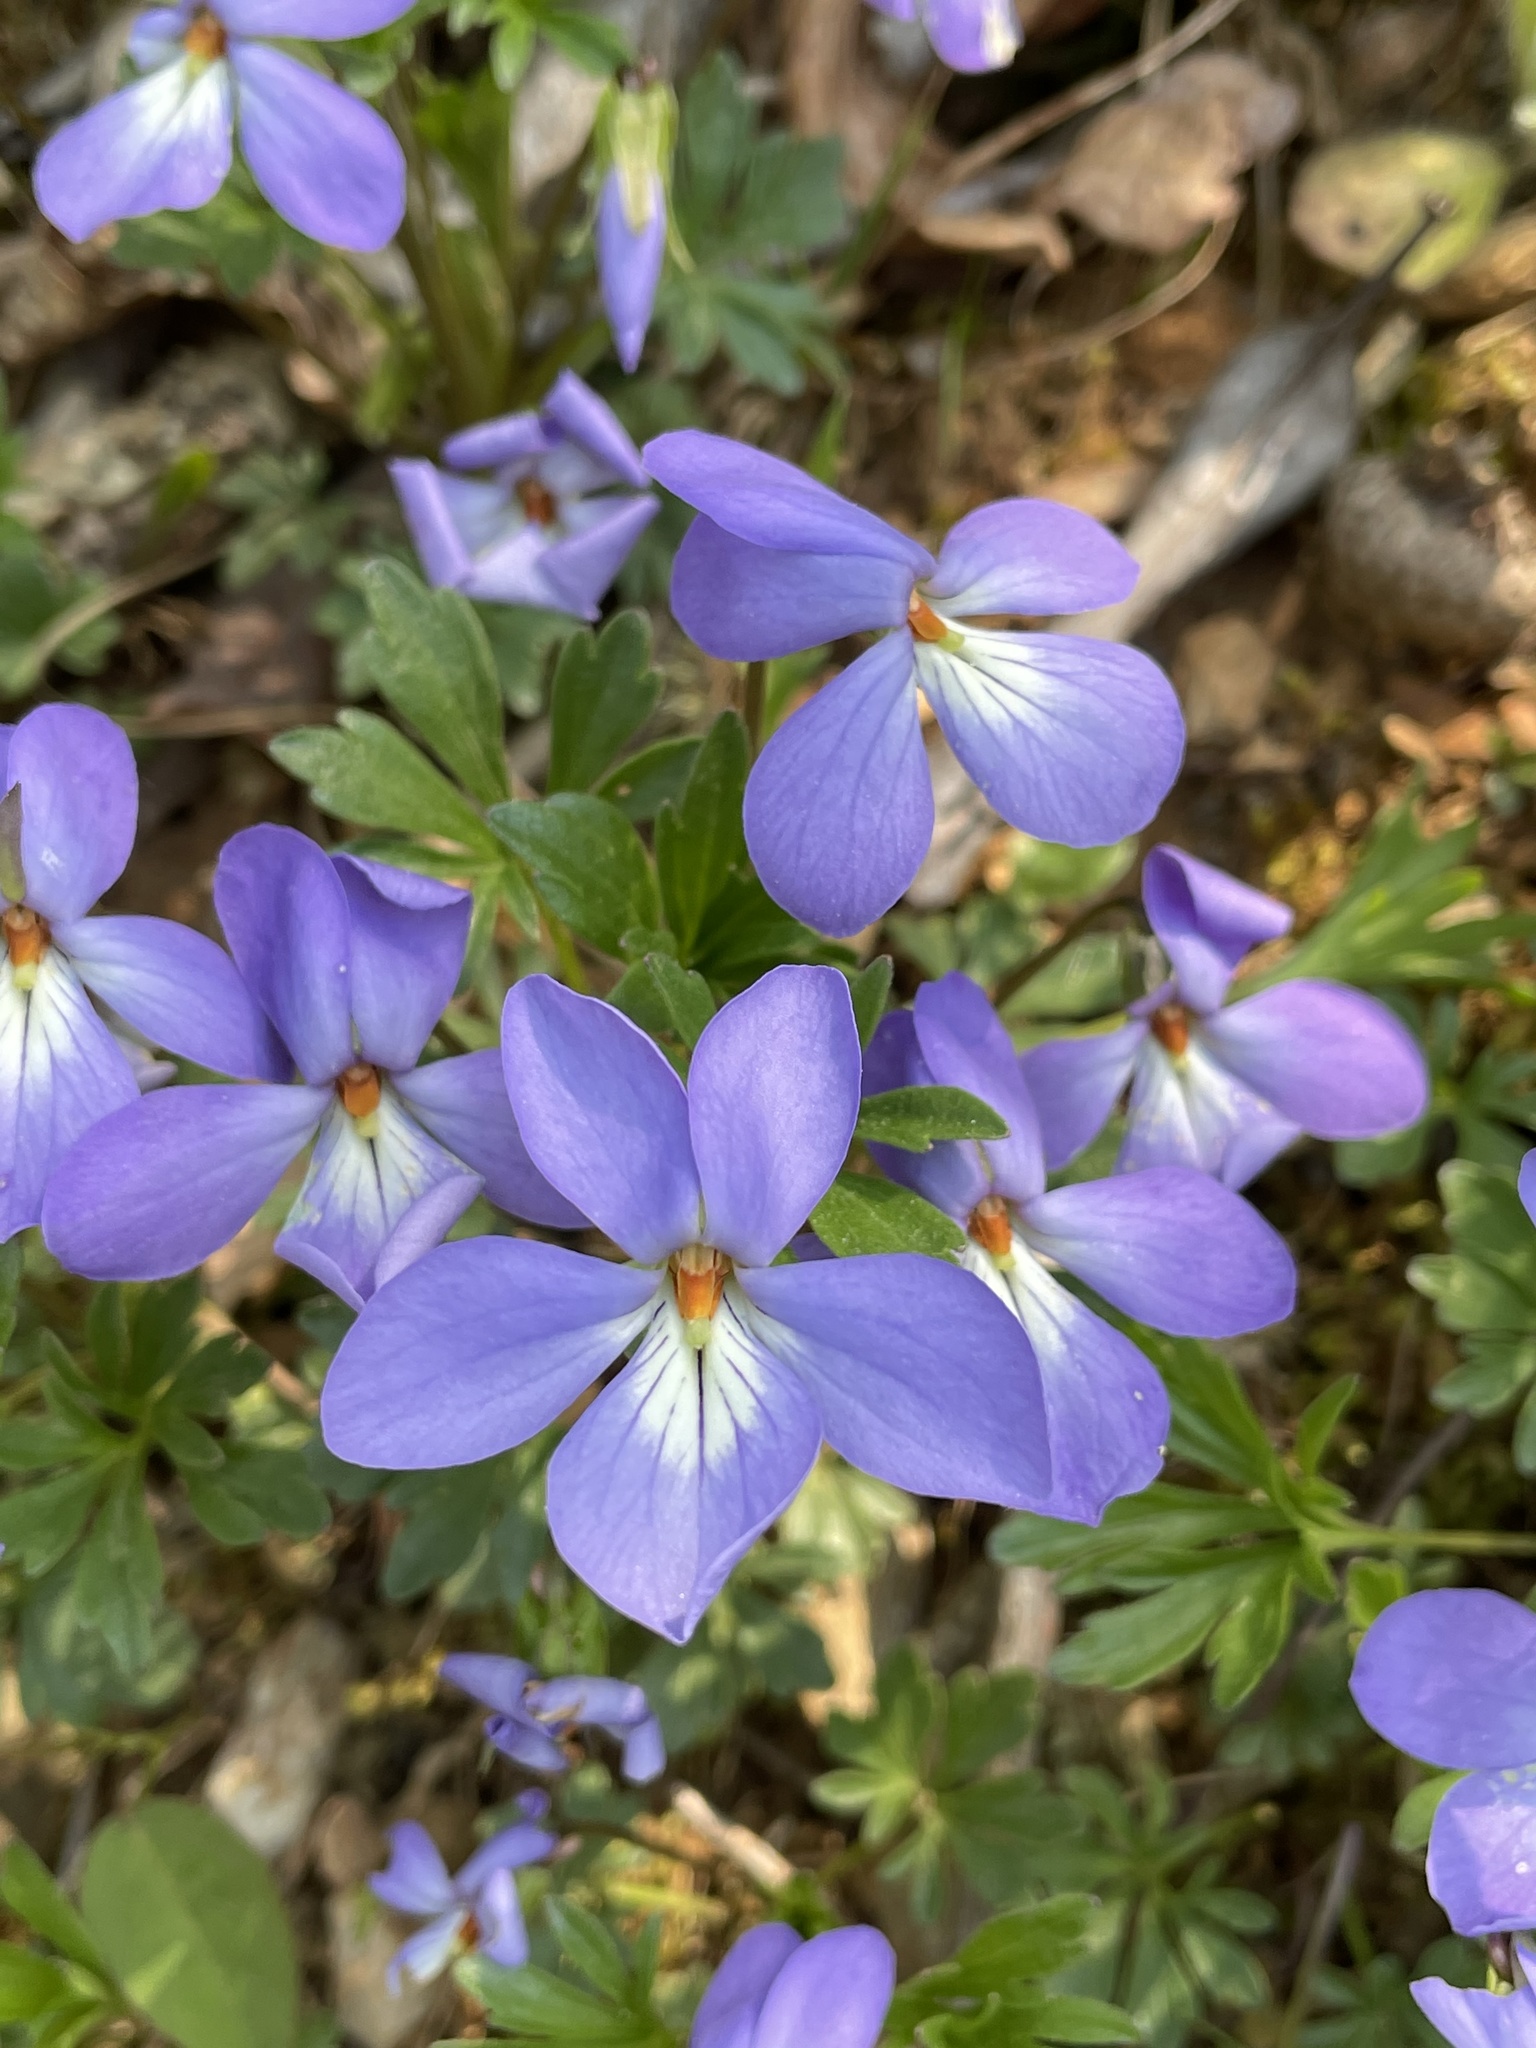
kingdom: Plantae
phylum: Tracheophyta
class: Magnoliopsida
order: Malpighiales
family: Violaceae
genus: Viola
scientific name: Viola pedata
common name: Pansy violet
